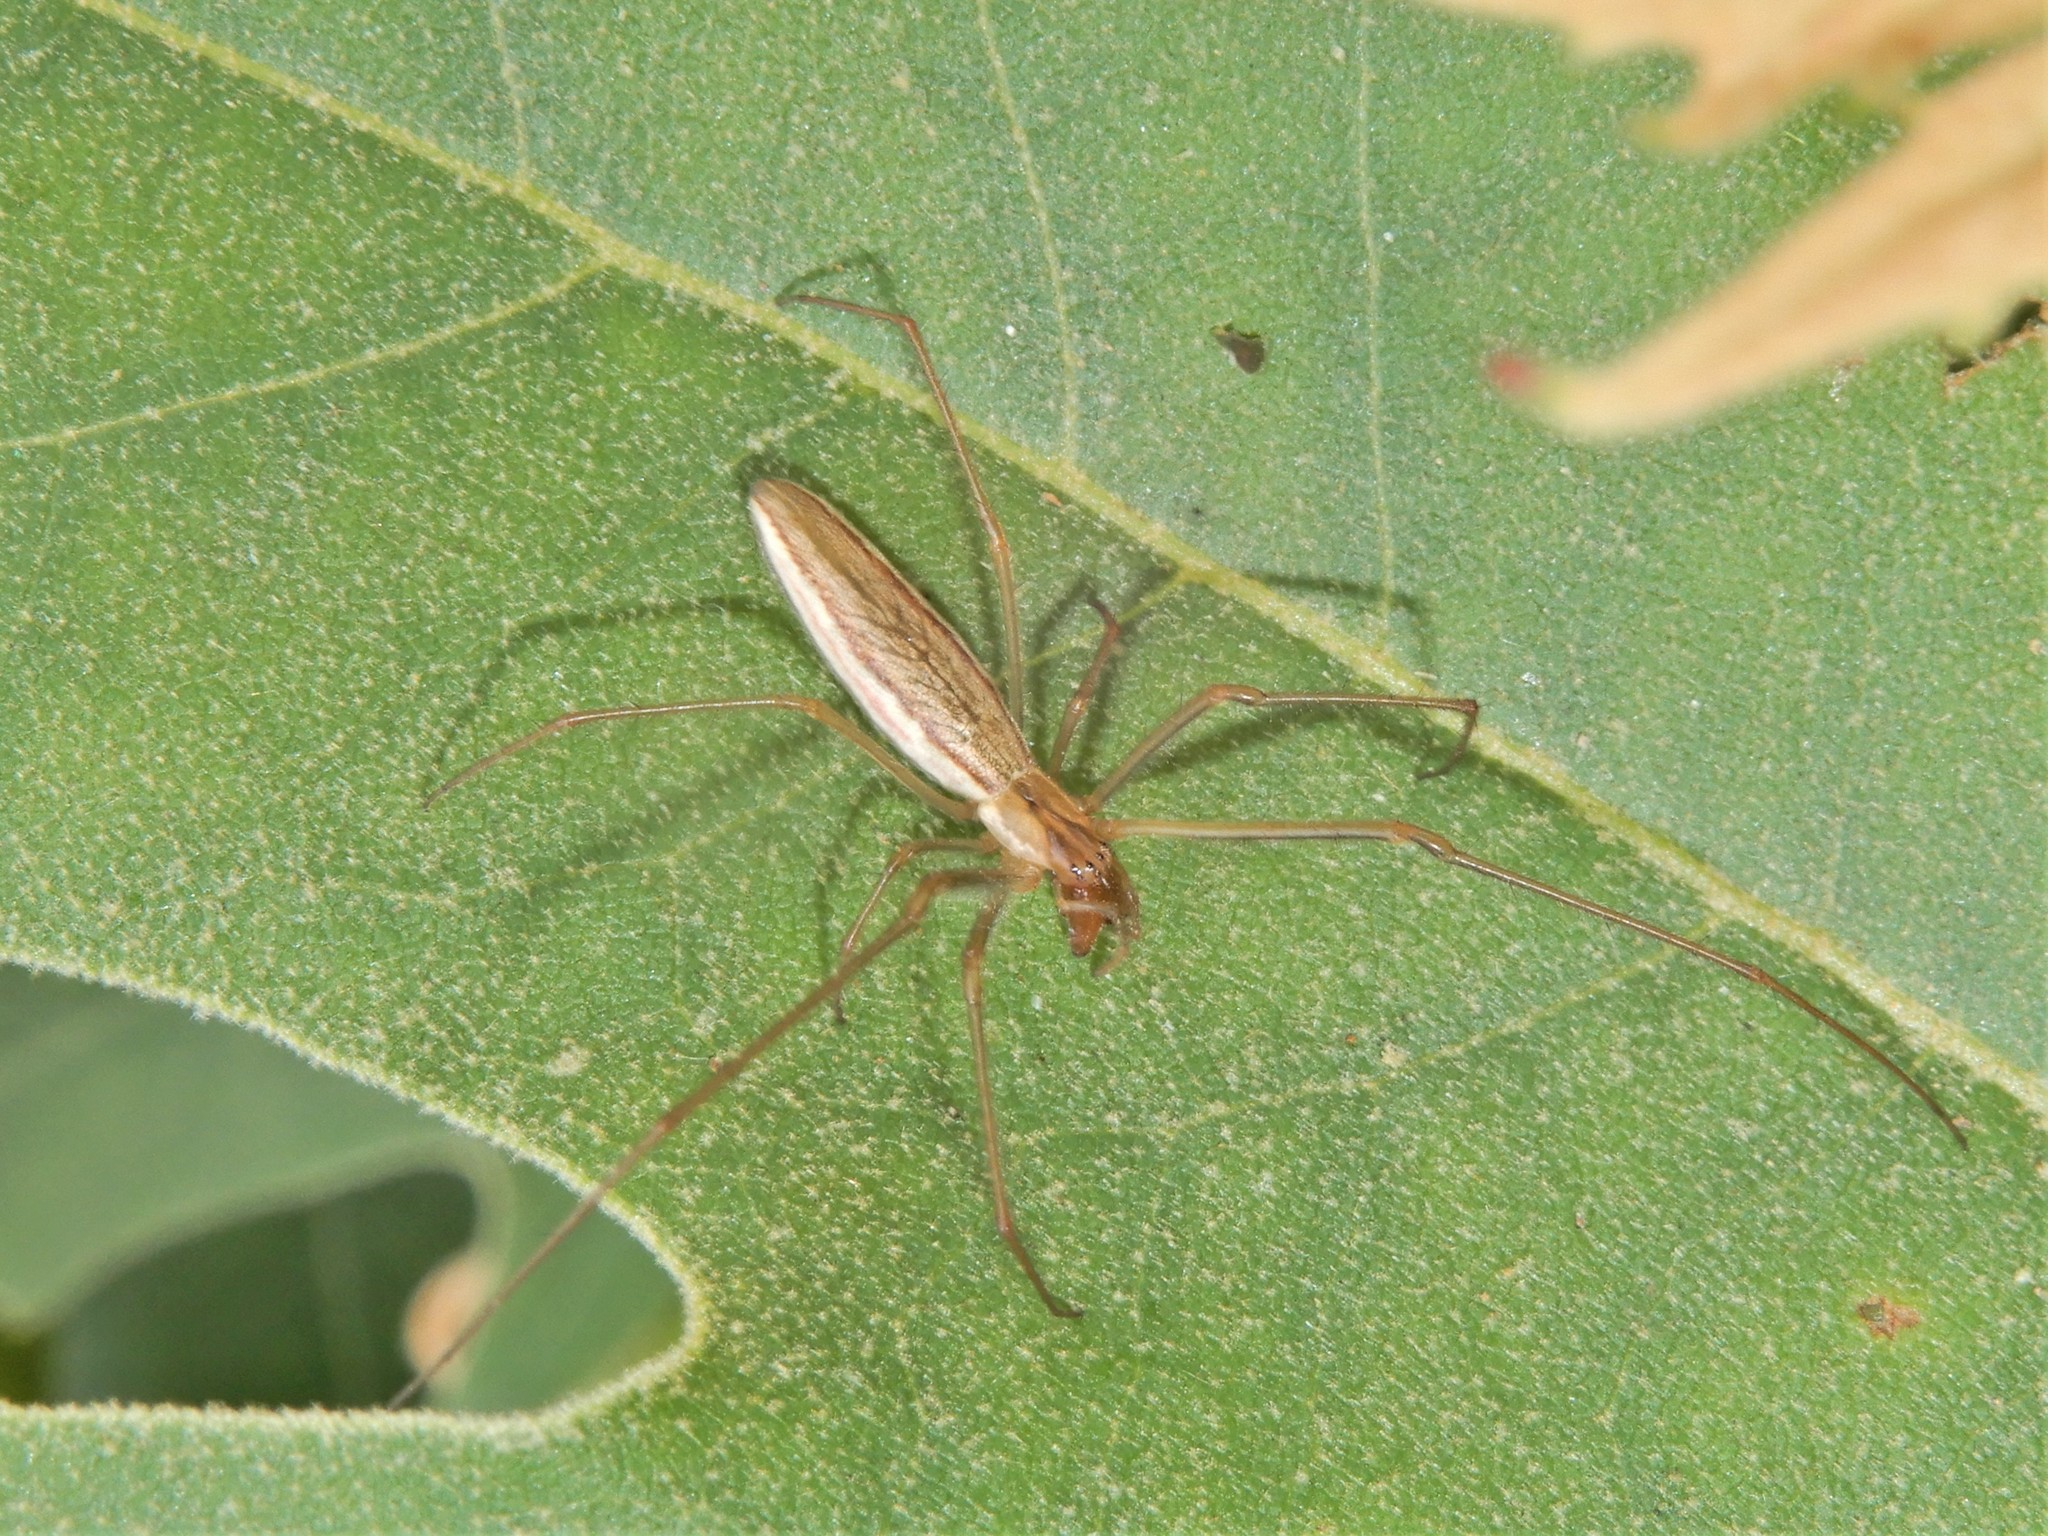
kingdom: Animalia
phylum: Arthropoda
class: Arachnida
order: Araneae
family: Tetragnathidae
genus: Tetragnatha
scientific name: Tetragnatha
